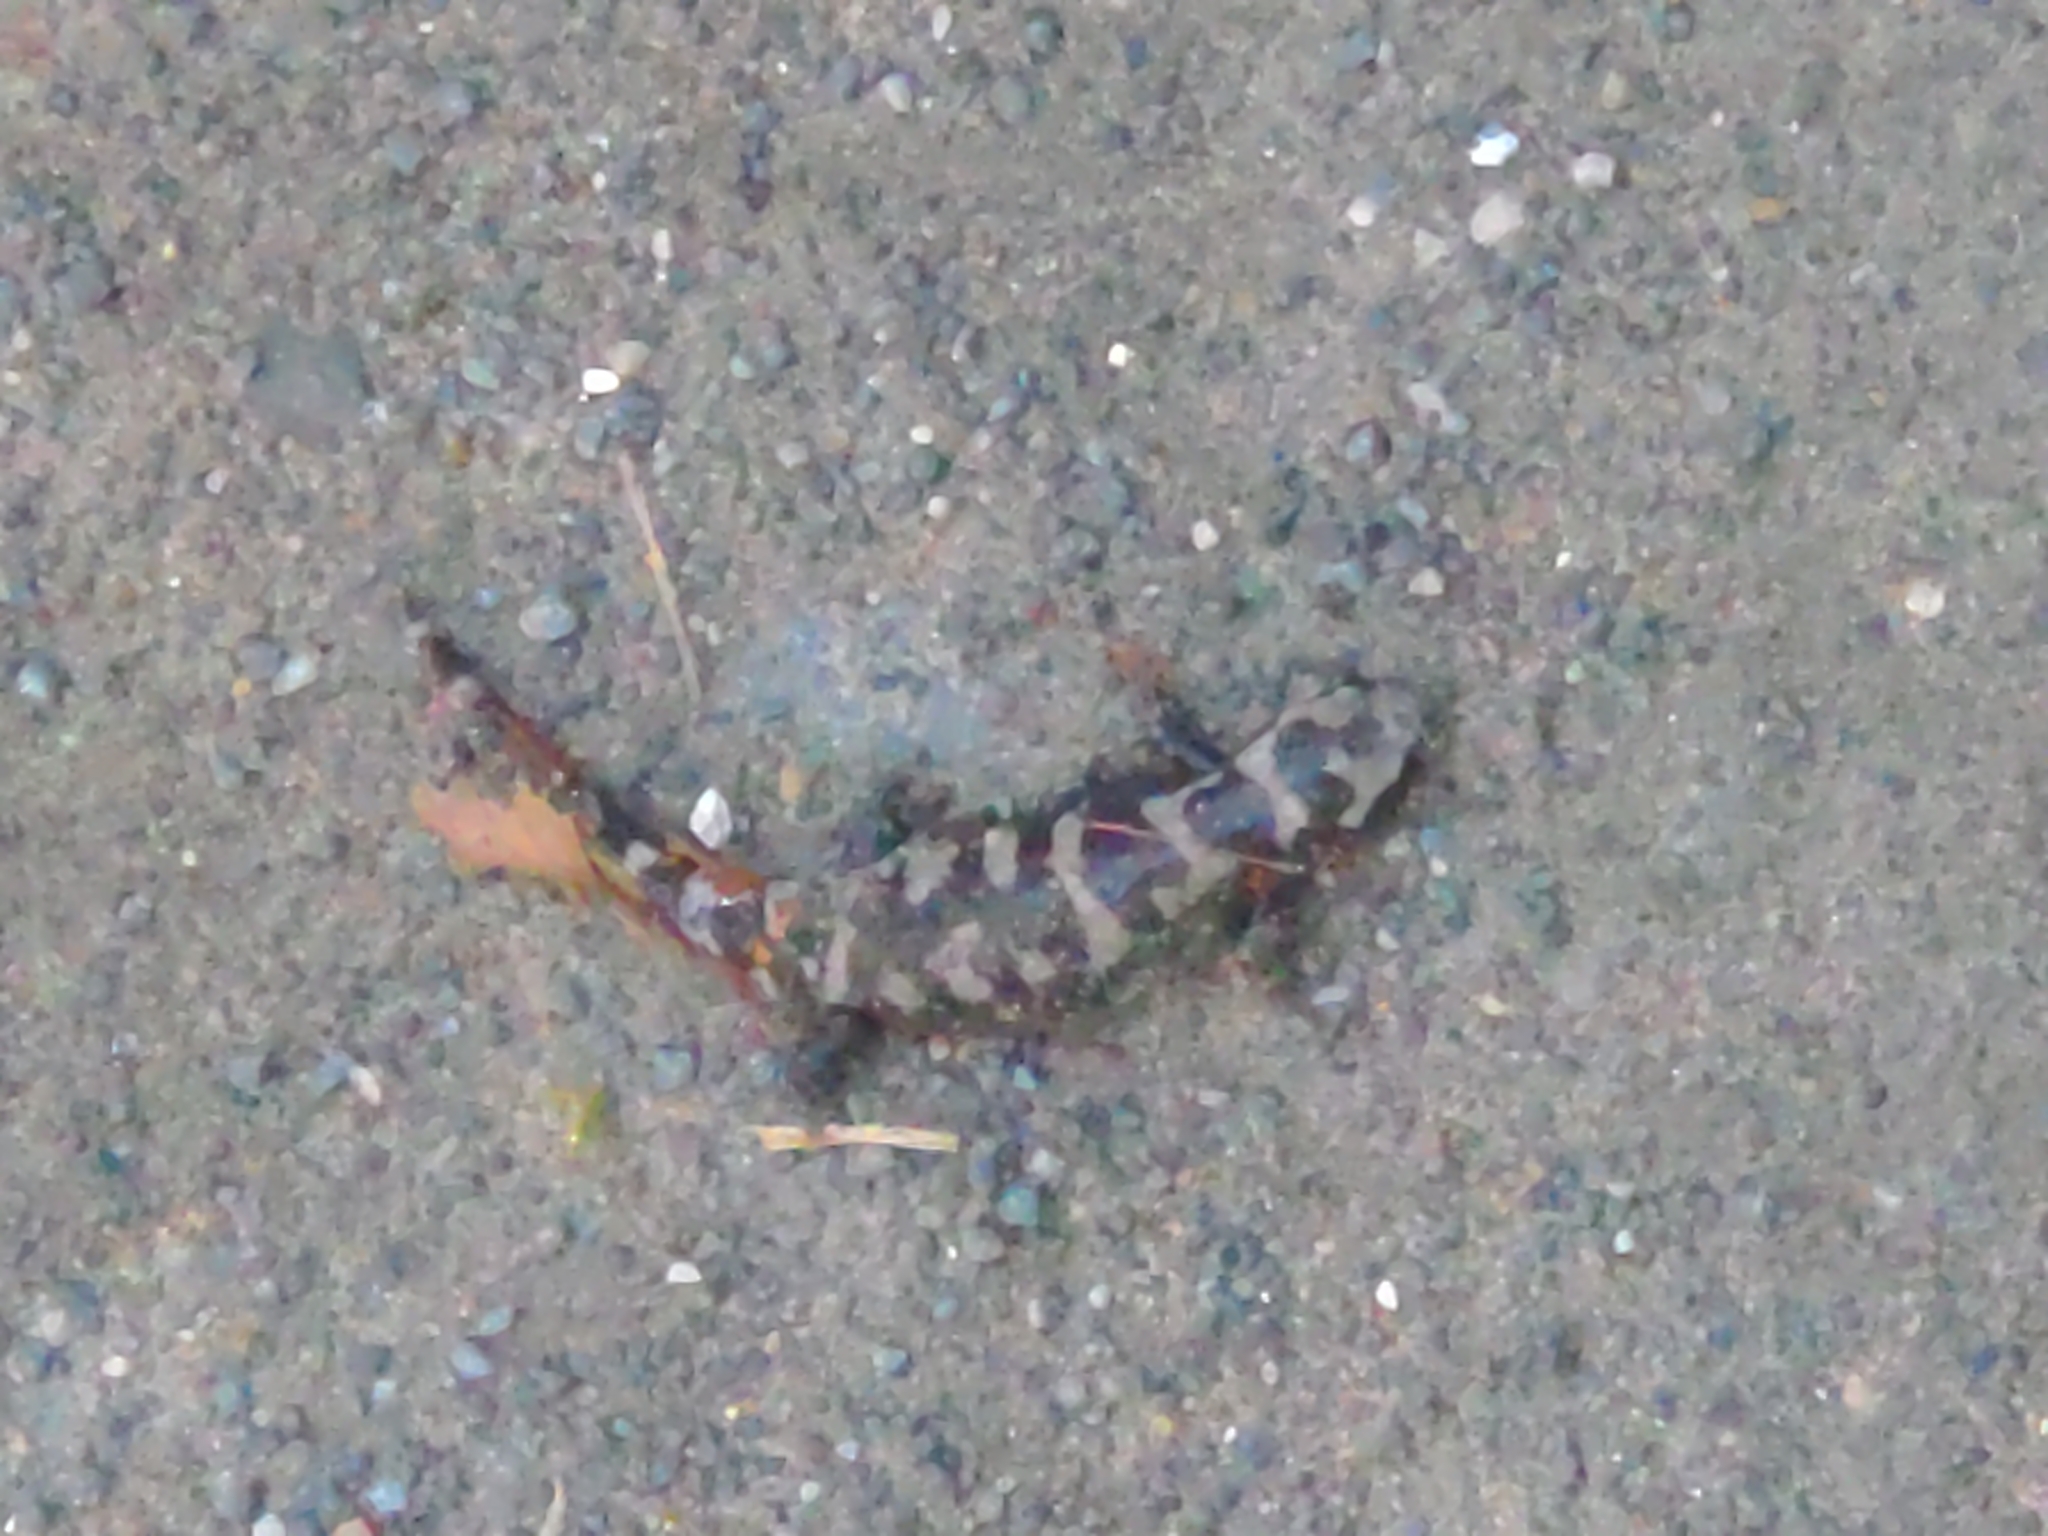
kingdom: Animalia
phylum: Chordata
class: Amphibia
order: Caudata
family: Ambystomatidae
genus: Ambystoma
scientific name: Ambystoma opacum
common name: Marbled salamander
